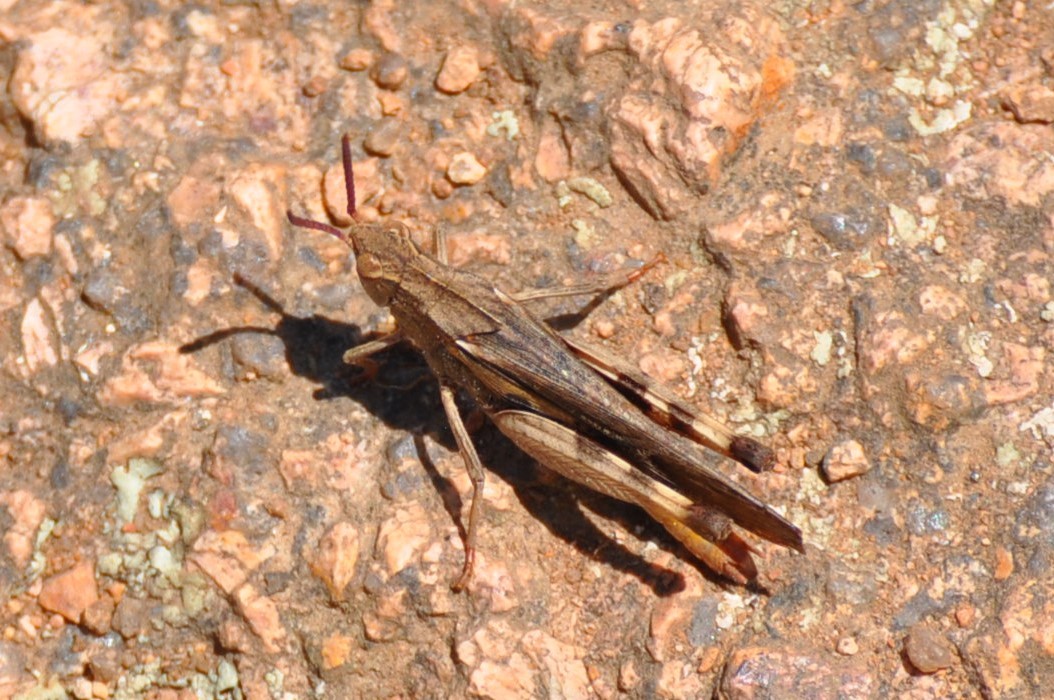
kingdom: Animalia
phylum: Arthropoda
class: Insecta
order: Orthoptera
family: Acrididae
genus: Chortophaga
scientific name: Chortophaga viridifasciata
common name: Green-striped grasshopper
